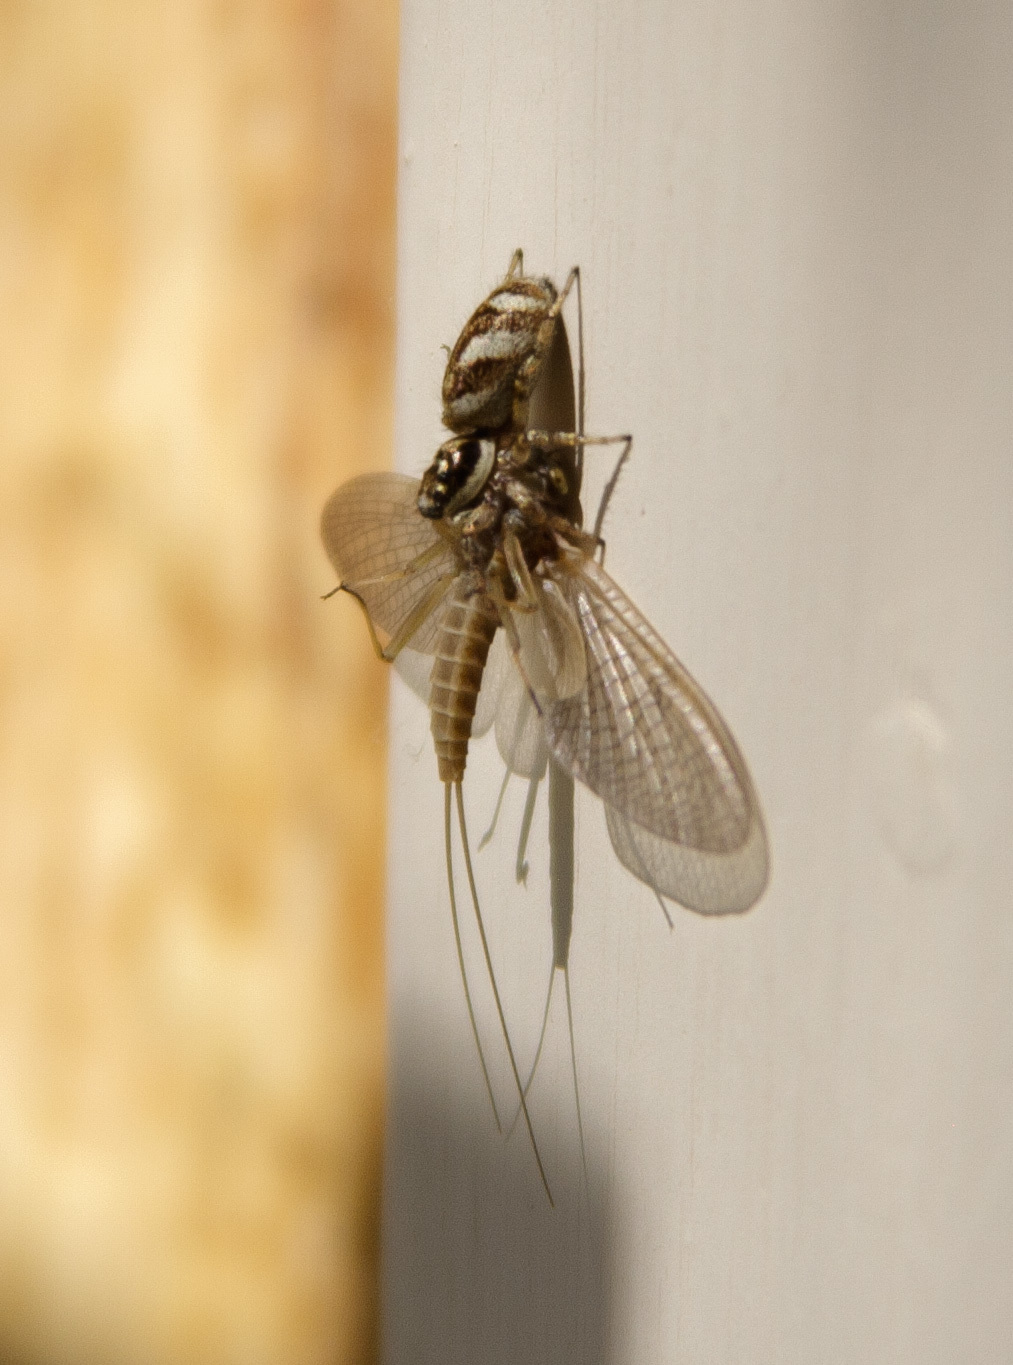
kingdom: Animalia
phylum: Arthropoda
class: Arachnida
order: Araneae
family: Salticidae
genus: Salticus
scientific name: Salticus scenicus
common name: Zebra jumper
